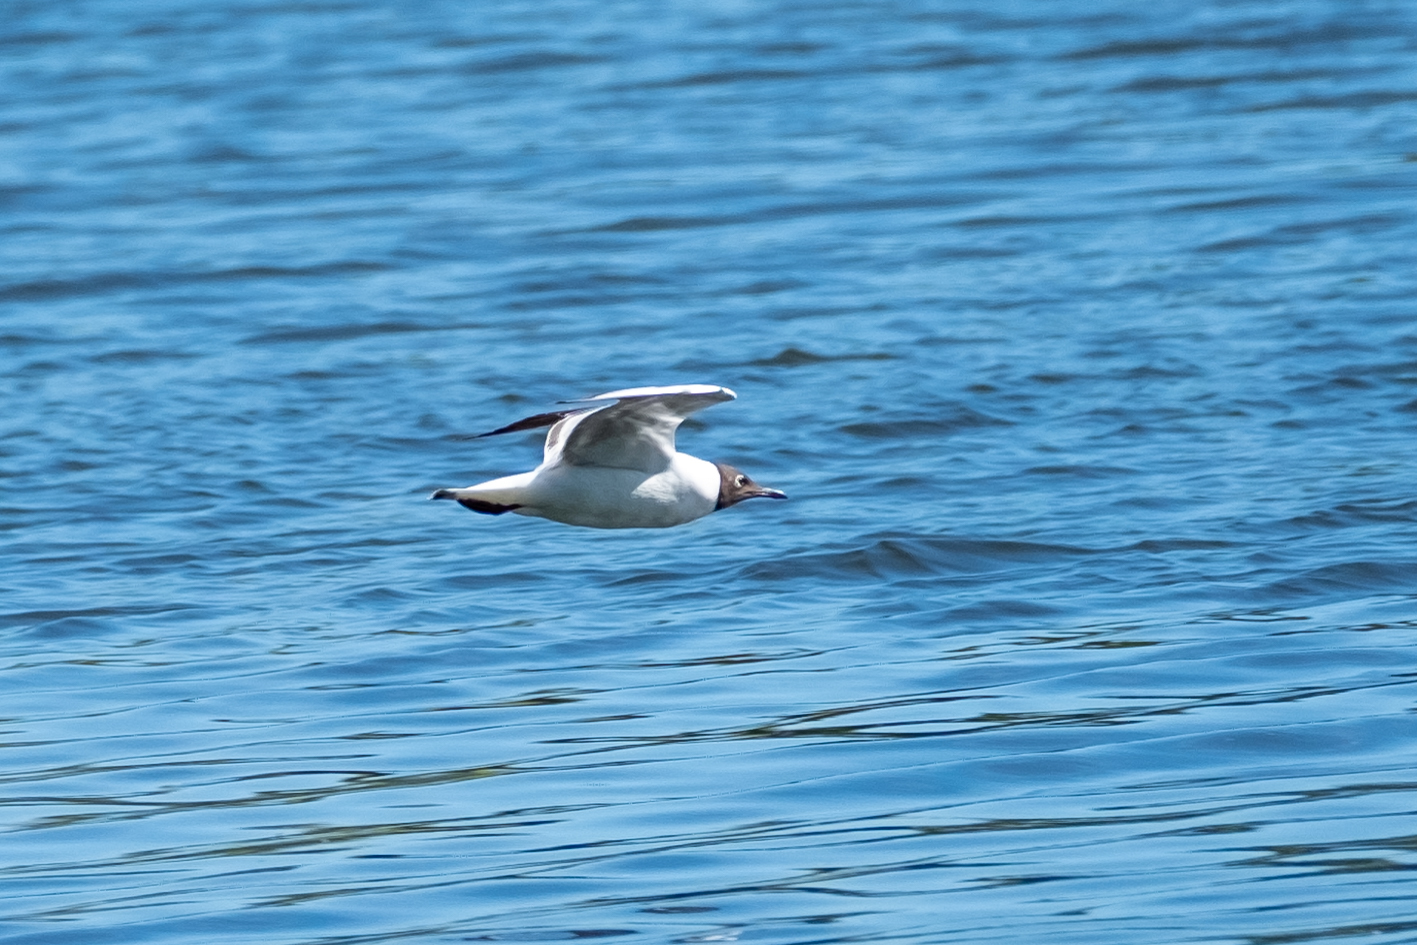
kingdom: Animalia
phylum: Chordata
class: Aves
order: Charadriiformes
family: Laridae
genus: Chroicocephalus
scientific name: Chroicocephalus ridibundus
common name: Black-headed gull
